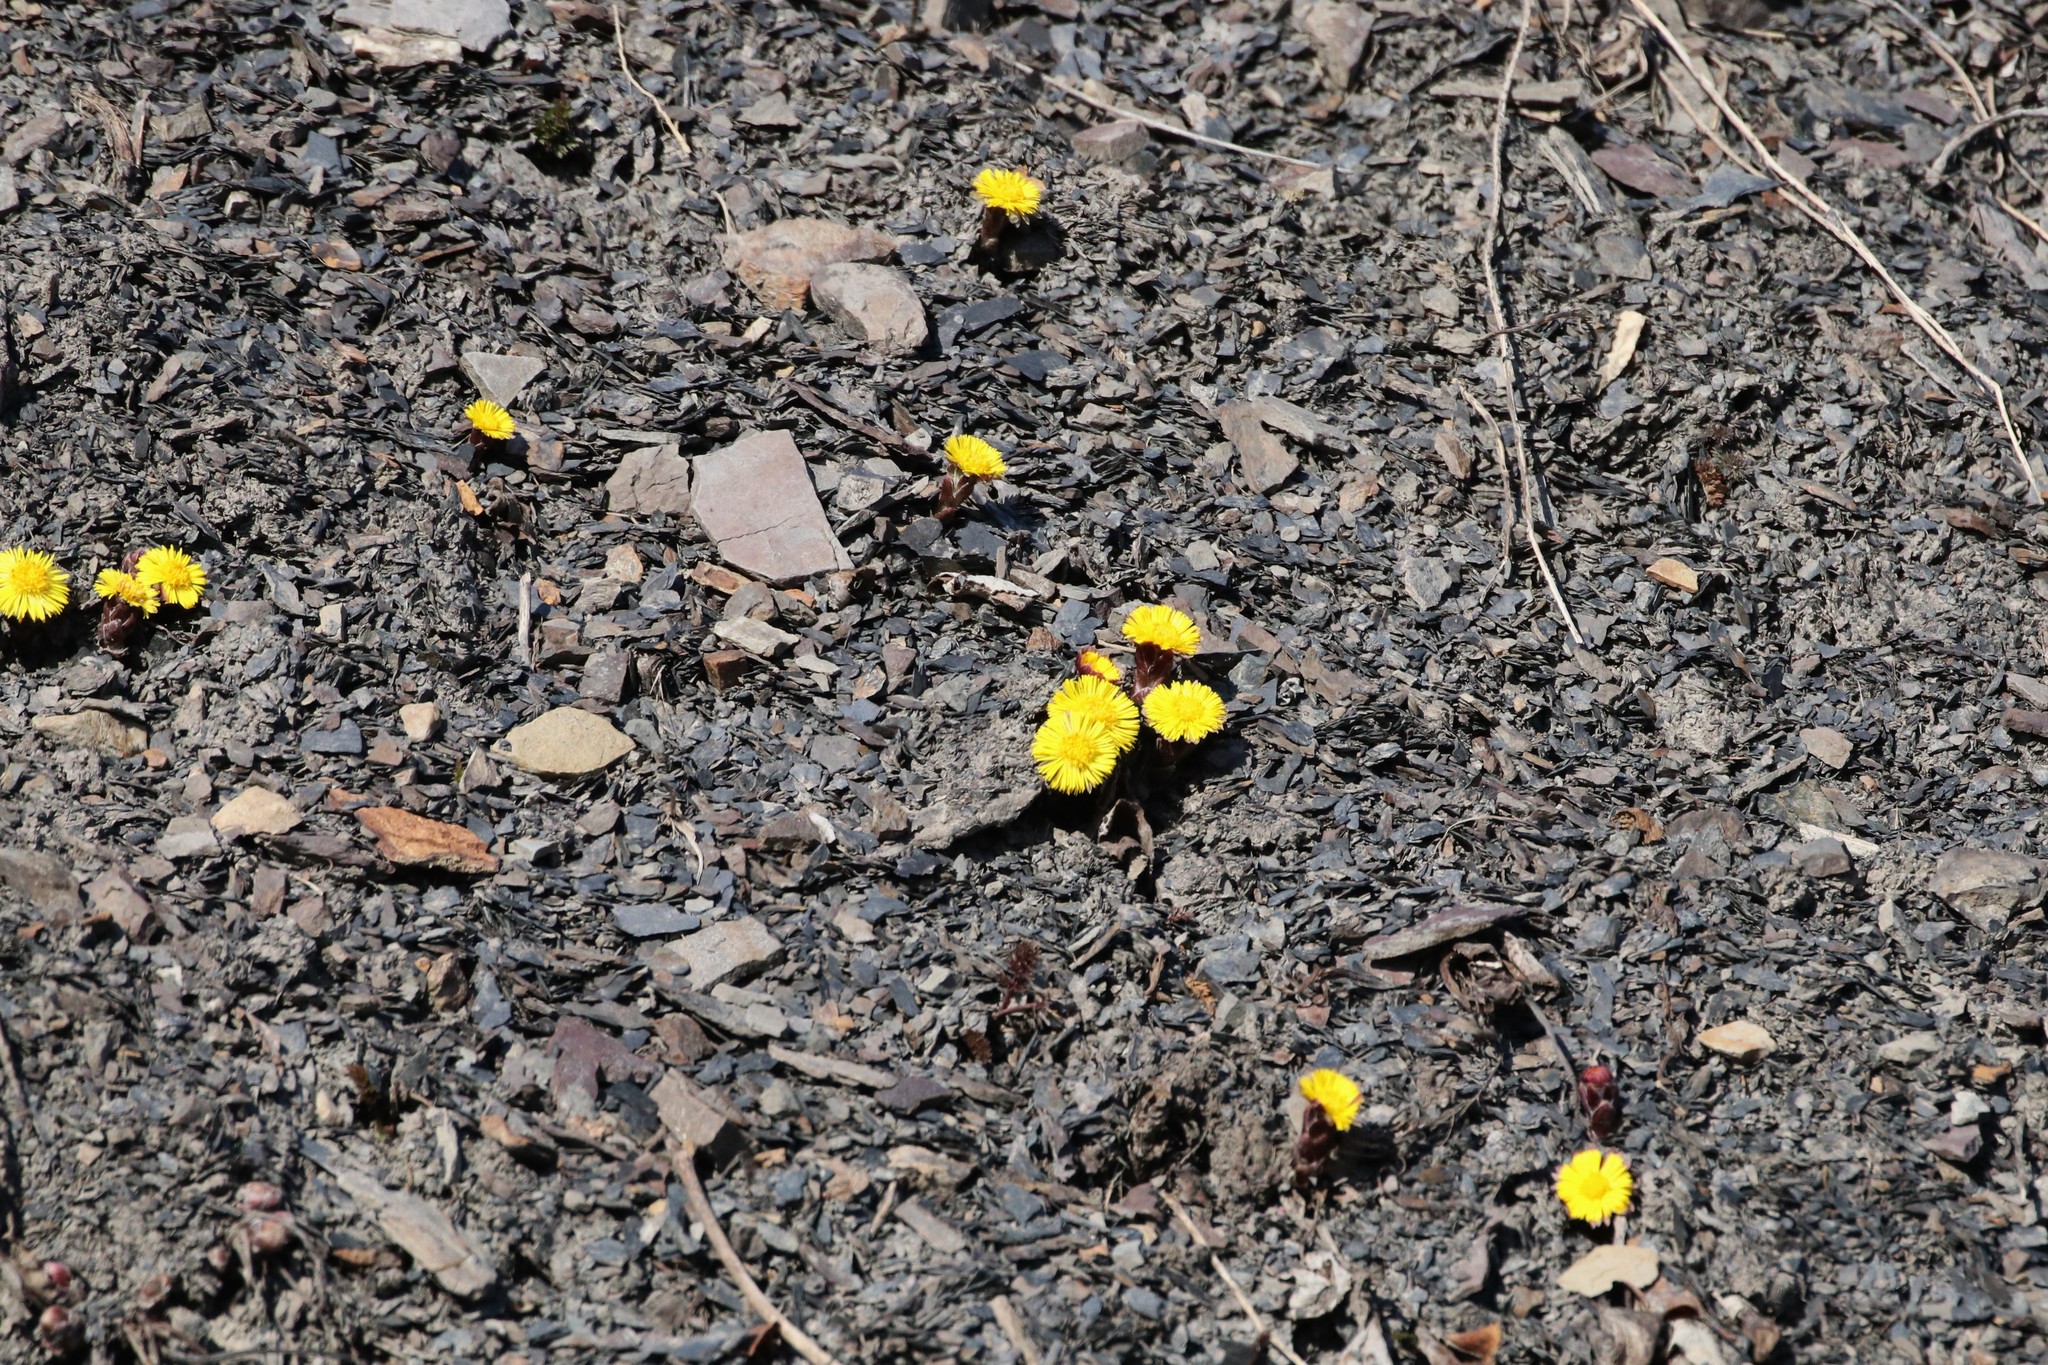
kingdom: Plantae
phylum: Tracheophyta
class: Magnoliopsida
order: Asterales
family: Asteraceae
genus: Tussilago
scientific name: Tussilago farfara
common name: Coltsfoot
